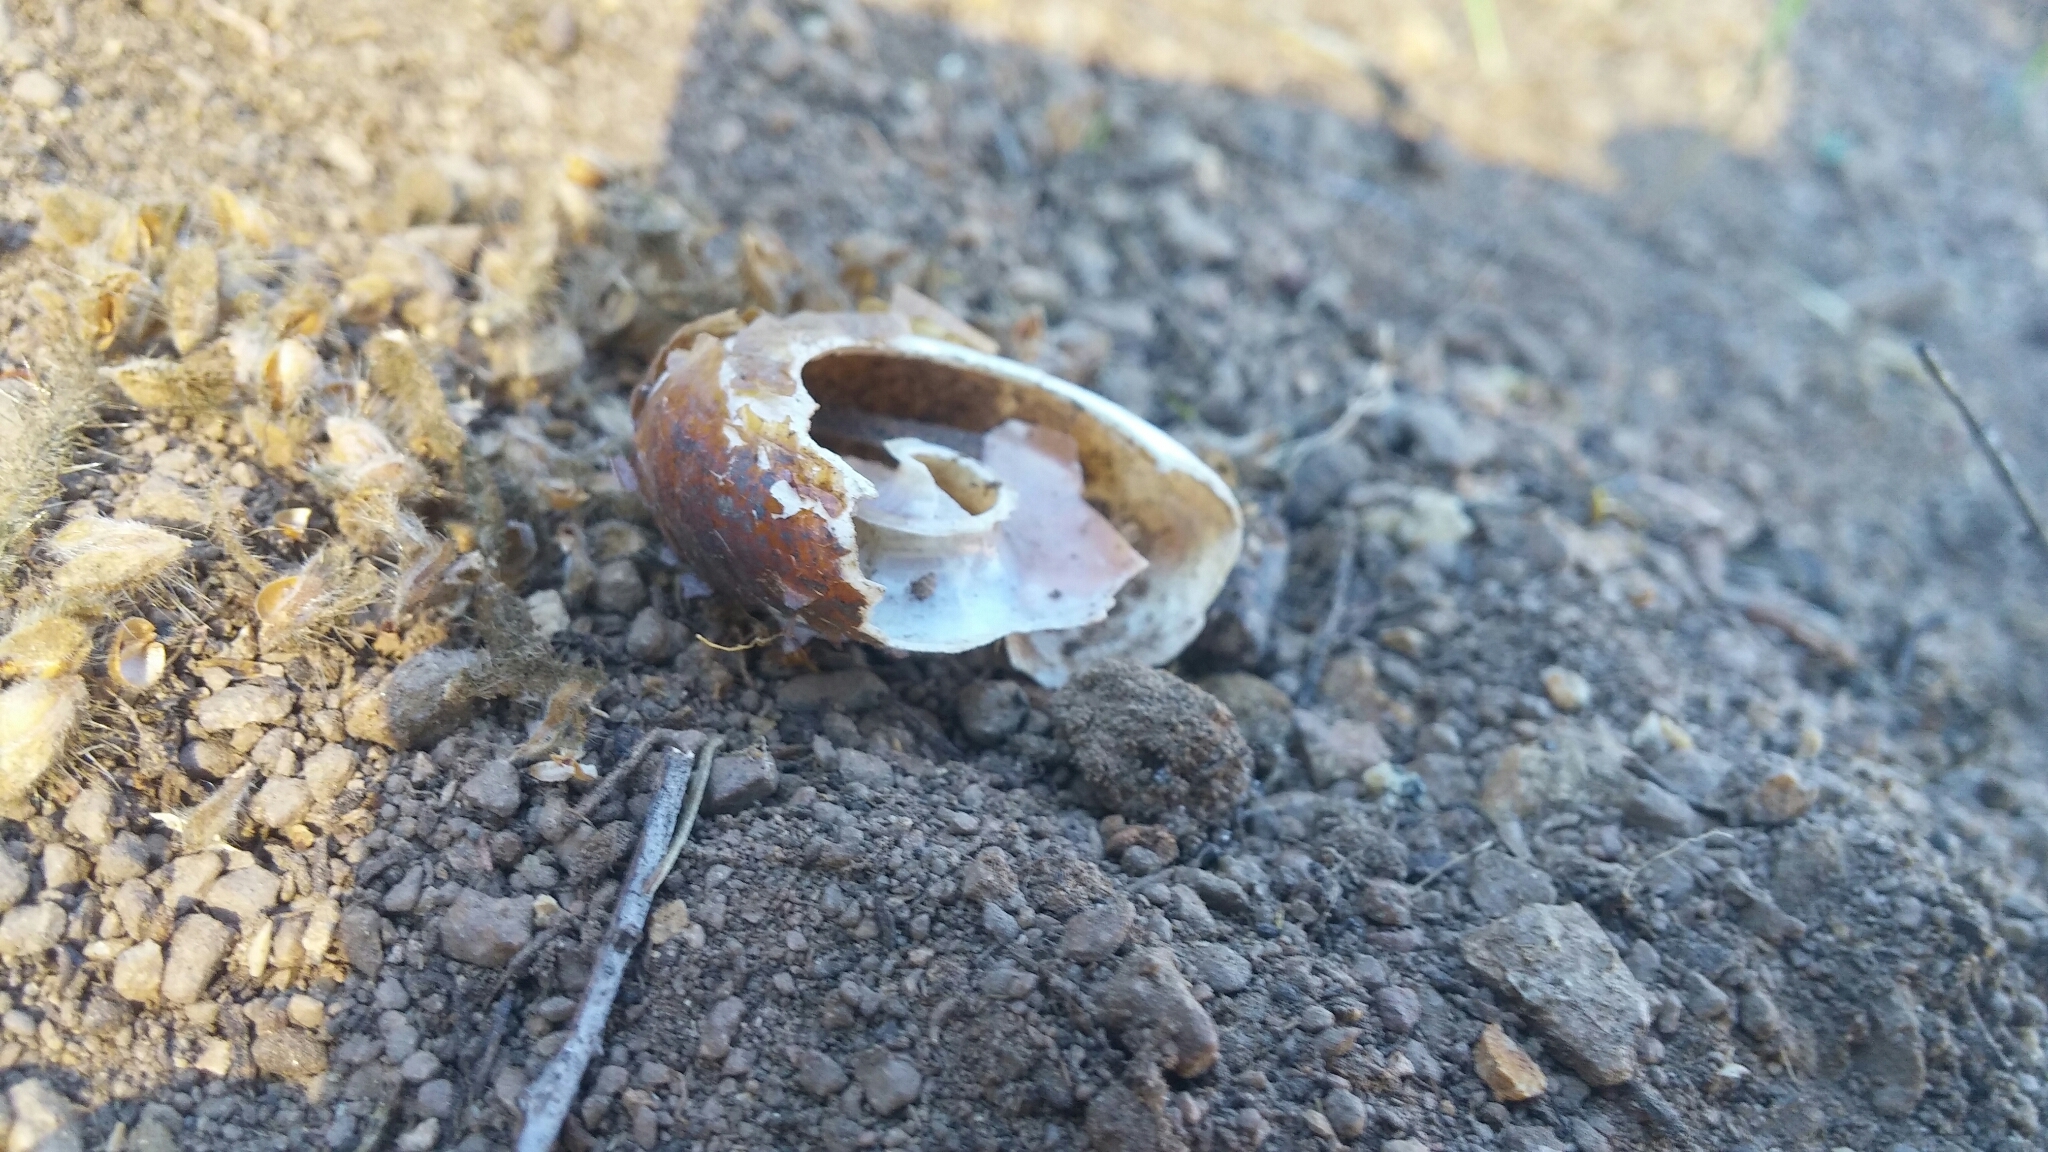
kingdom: Animalia
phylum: Mollusca
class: Gastropoda
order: Stylommatophora
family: Megomphicidae
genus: Glyptostoma
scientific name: Glyptostoma newberryanum
